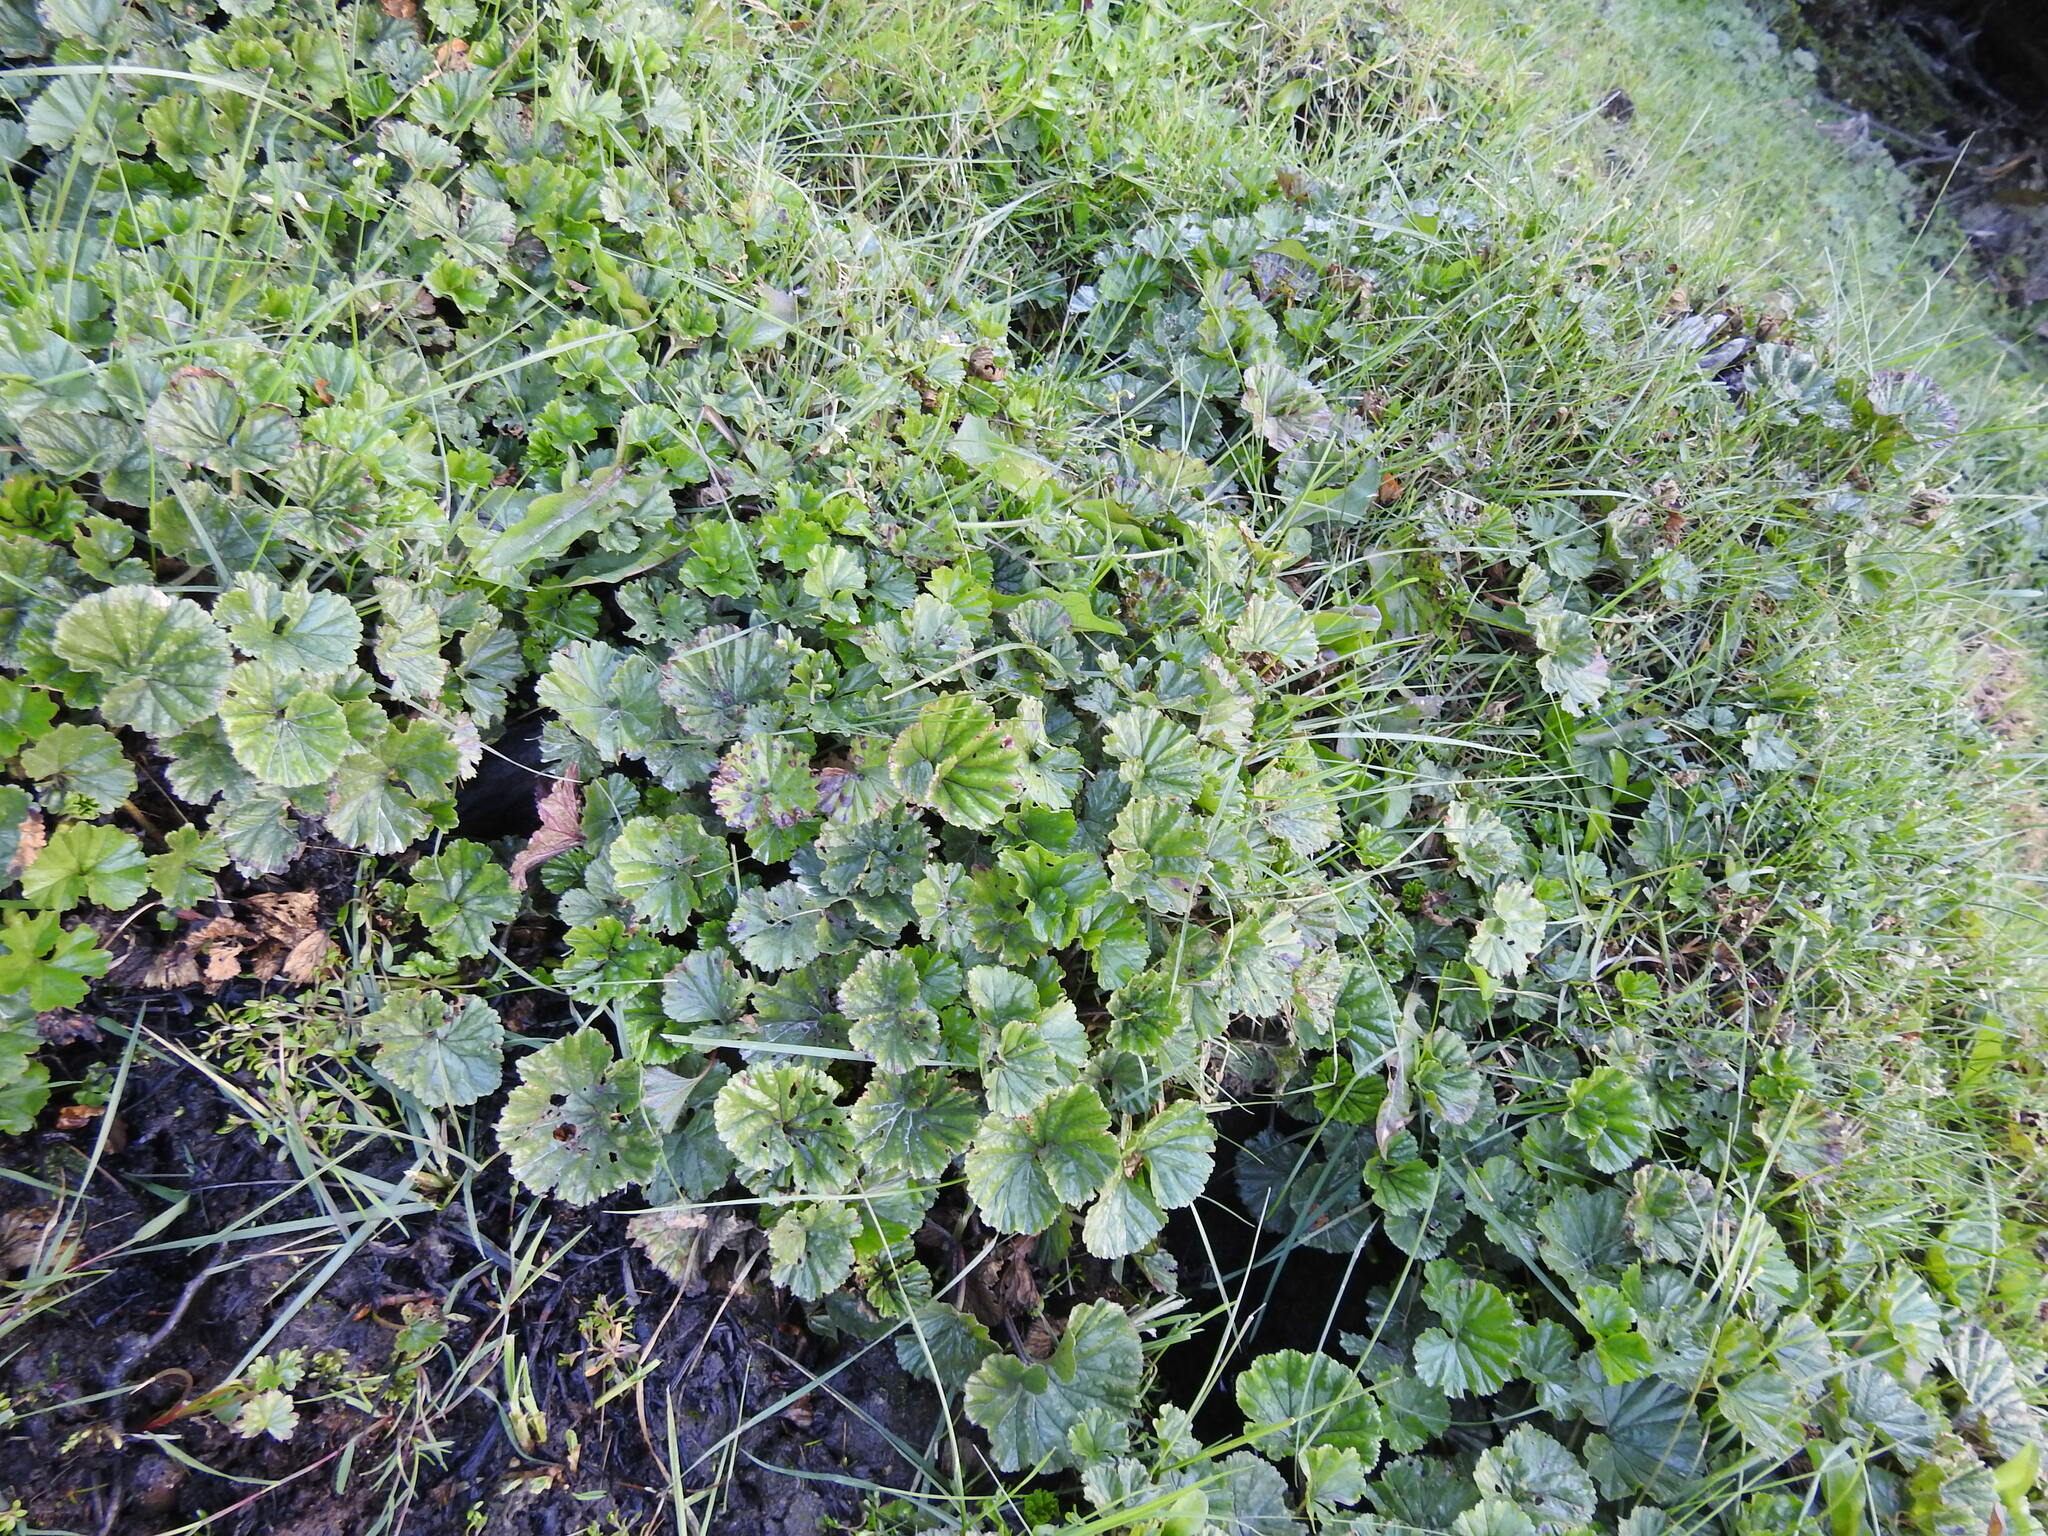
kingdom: Plantae
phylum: Tracheophyta
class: Magnoliopsida
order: Gunnerales
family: Gunneraceae
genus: Gunnera
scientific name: Gunnera magellanica
